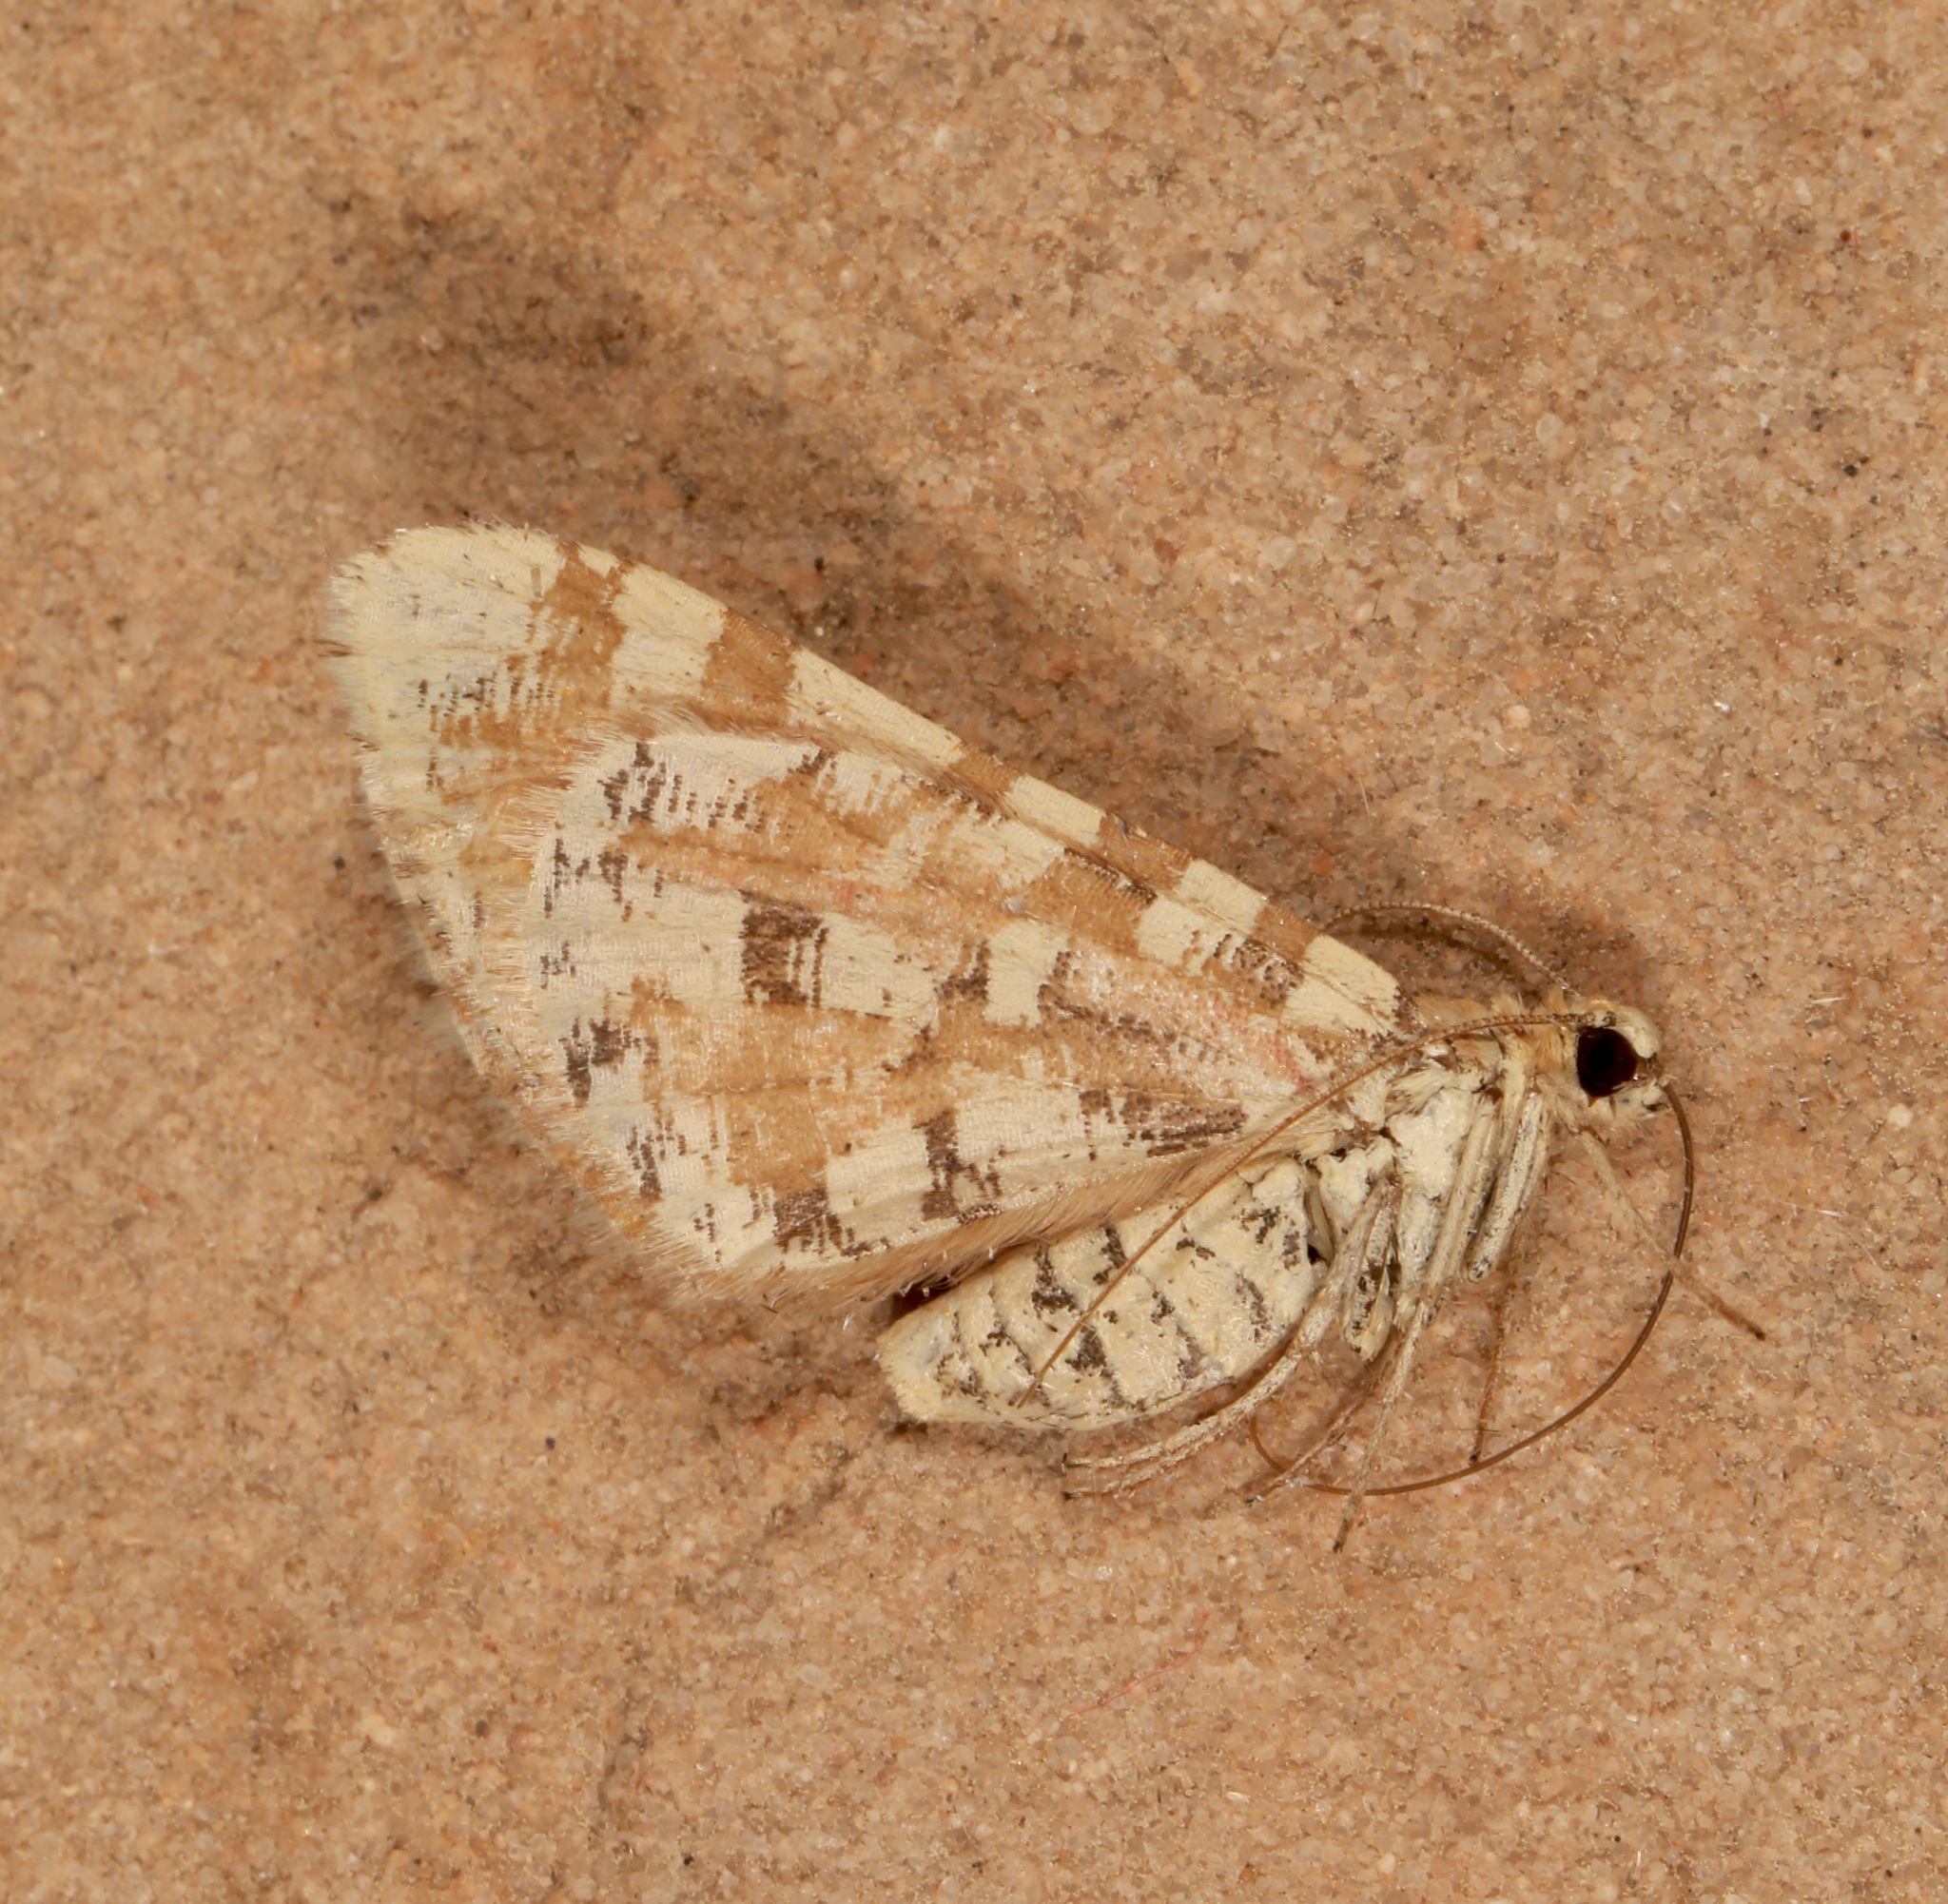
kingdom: Animalia
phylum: Arthropoda
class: Insecta
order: Lepidoptera
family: Geometridae
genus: Stamnodes
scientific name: Stamnodes tessellata
